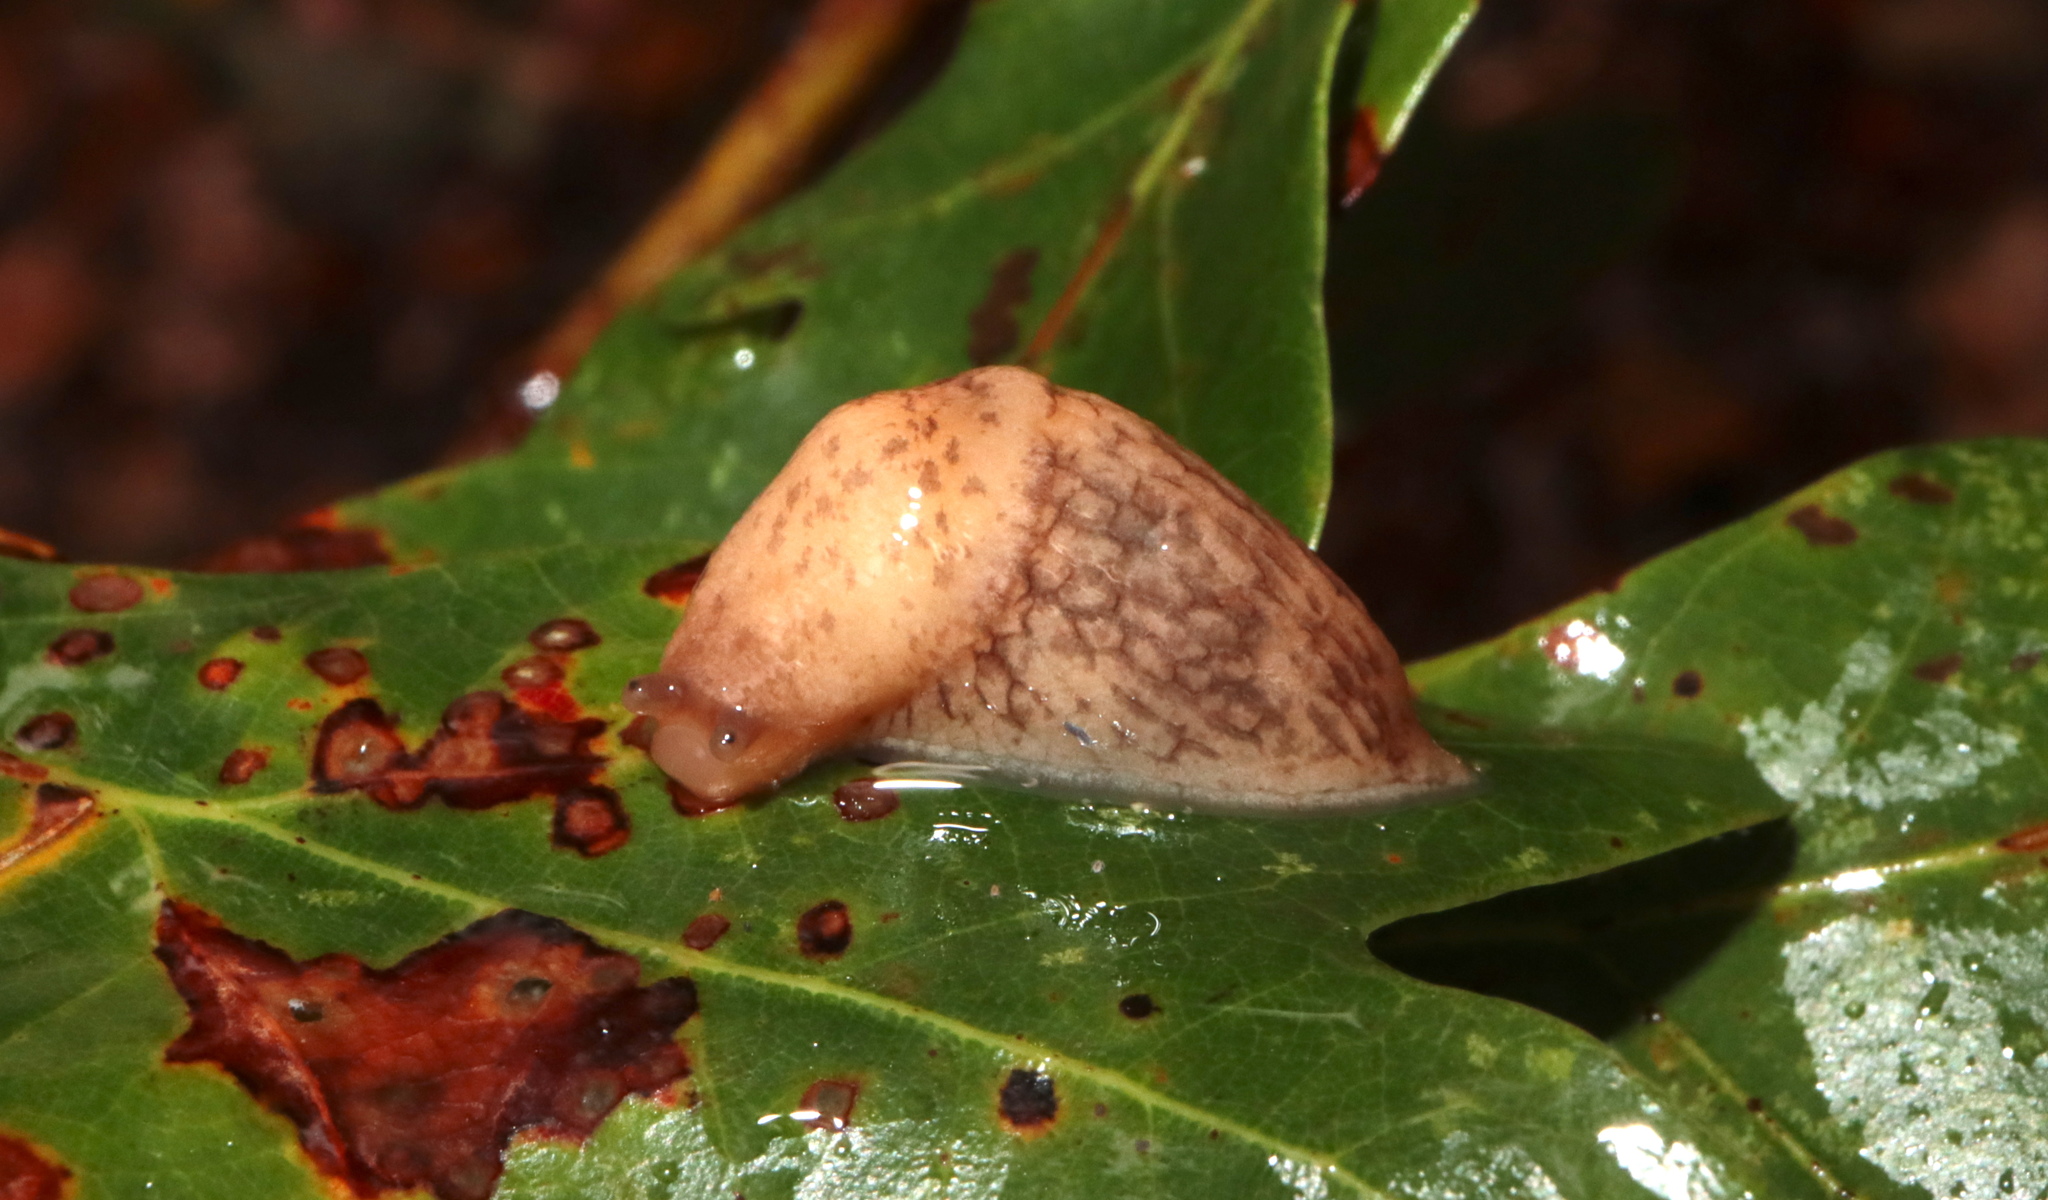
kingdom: Animalia
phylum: Mollusca
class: Gastropoda
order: Stylommatophora
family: Agriolimacidae
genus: Deroceras
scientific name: Deroceras reticulatum
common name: Gray field slug
